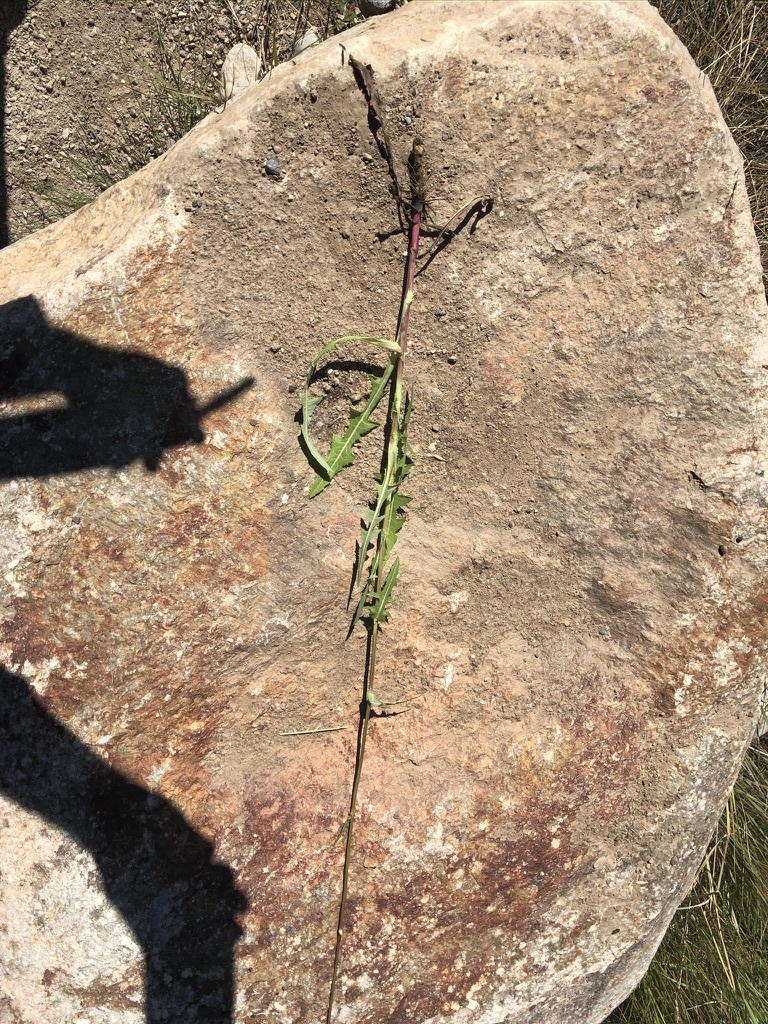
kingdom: Plantae
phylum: Tracheophyta
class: Magnoliopsida
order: Asterales
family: Asteraceae
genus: Sonchus
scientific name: Sonchus arvensis
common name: Perennial sow-thistle
